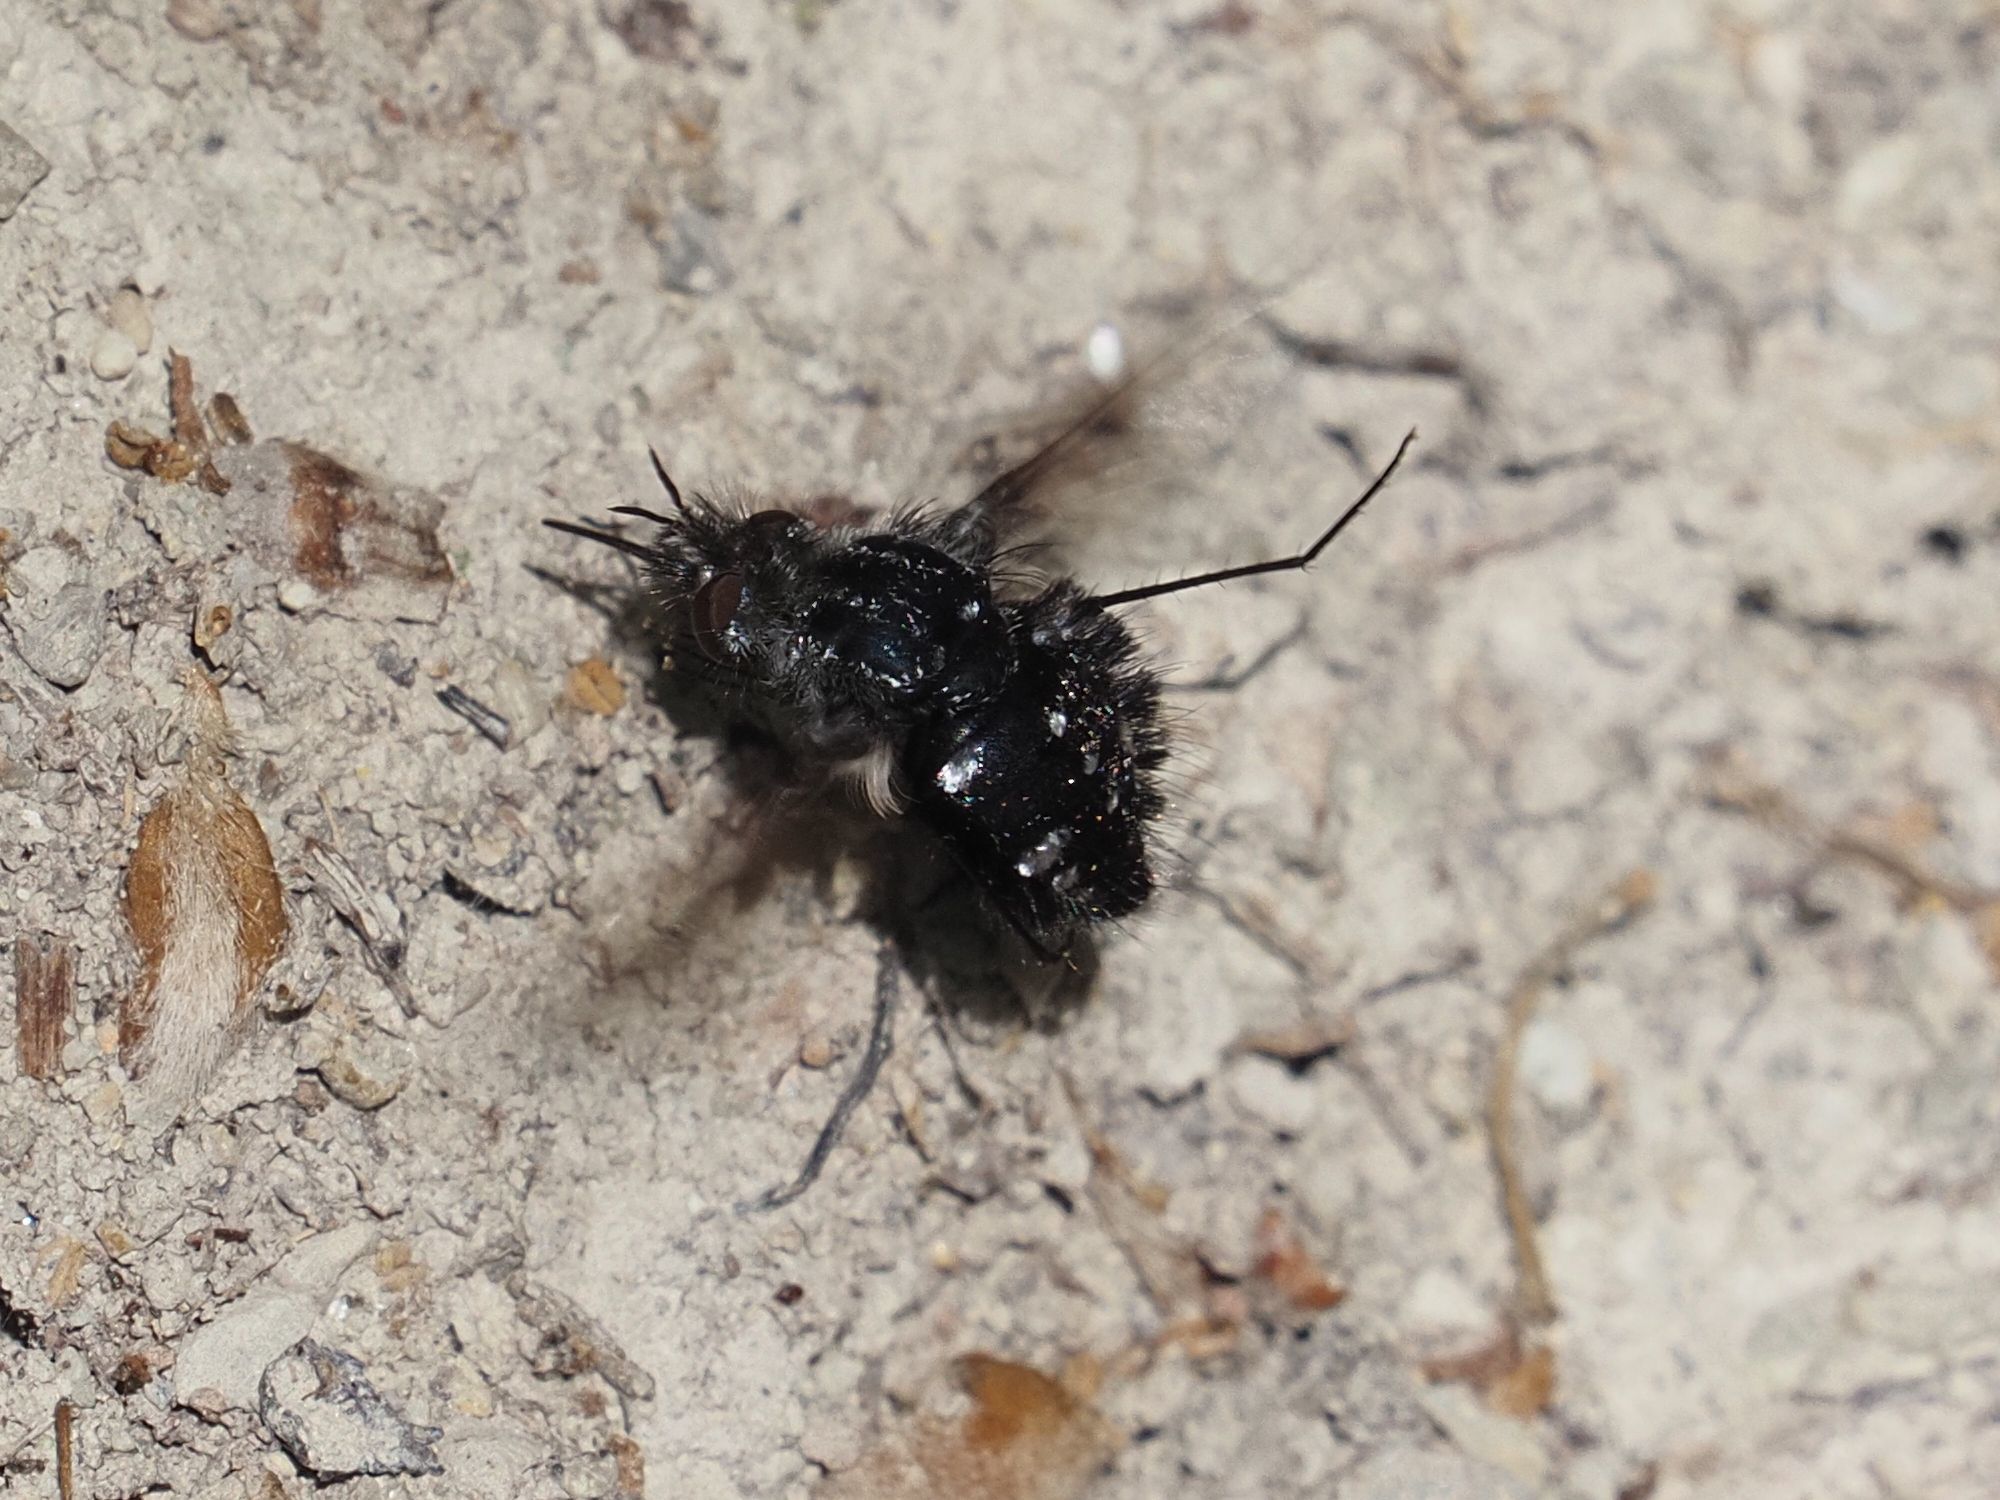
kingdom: Animalia
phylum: Arthropoda
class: Insecta
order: Diptera
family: Bombyliidae
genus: Bombylella
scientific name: Bombylella atra
